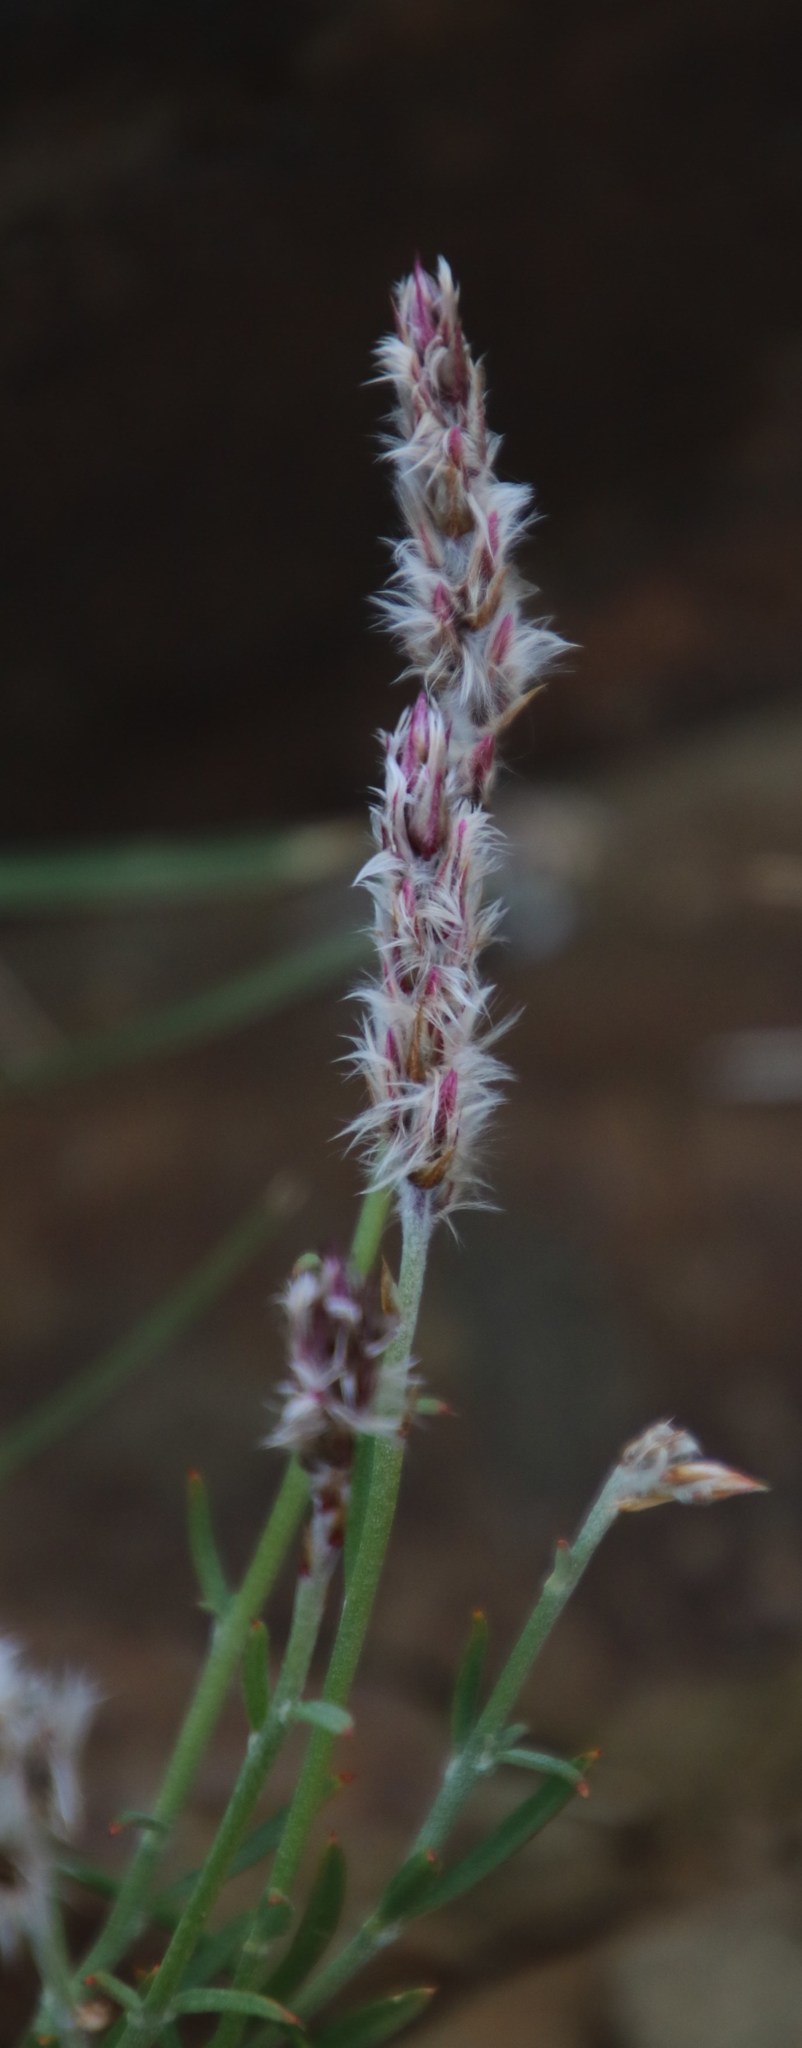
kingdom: Plantae
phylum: Tracheophyta
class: Magnoliopsida
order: Caryophyllales
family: Amaranthaceae
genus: Sericocoma
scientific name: Sericocoma avolans
